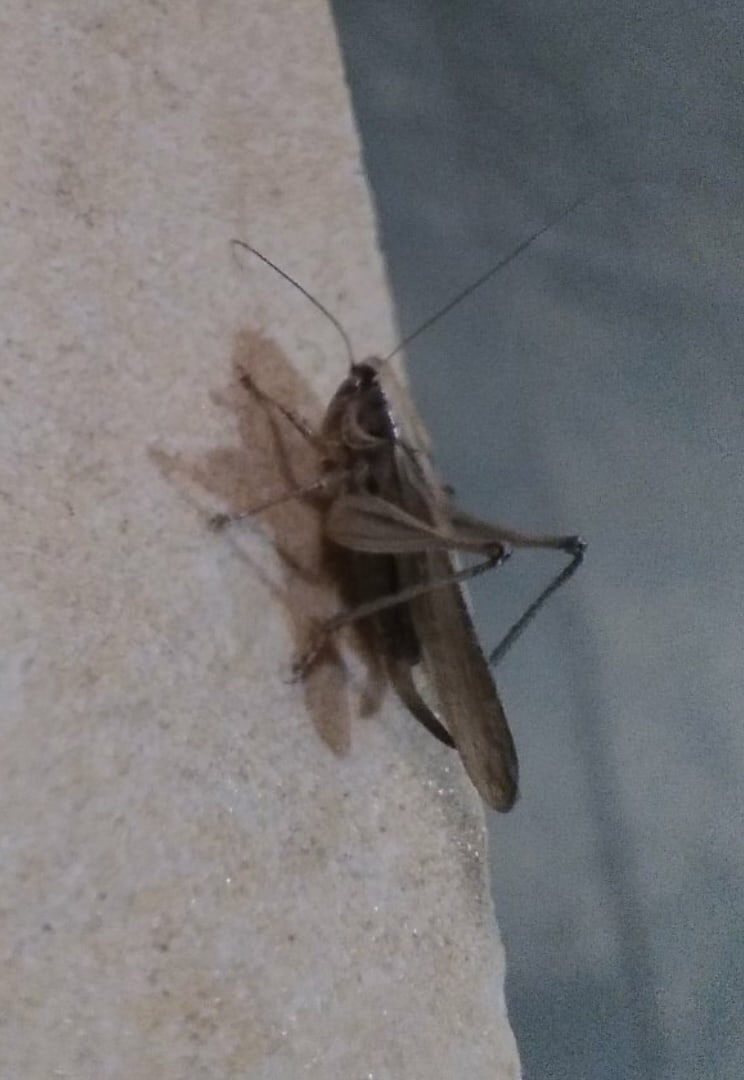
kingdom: Animalia
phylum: Arthropoda
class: Insecta
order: Orthoptera
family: Tettigoniidae
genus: Platycleis
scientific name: Platycleis
